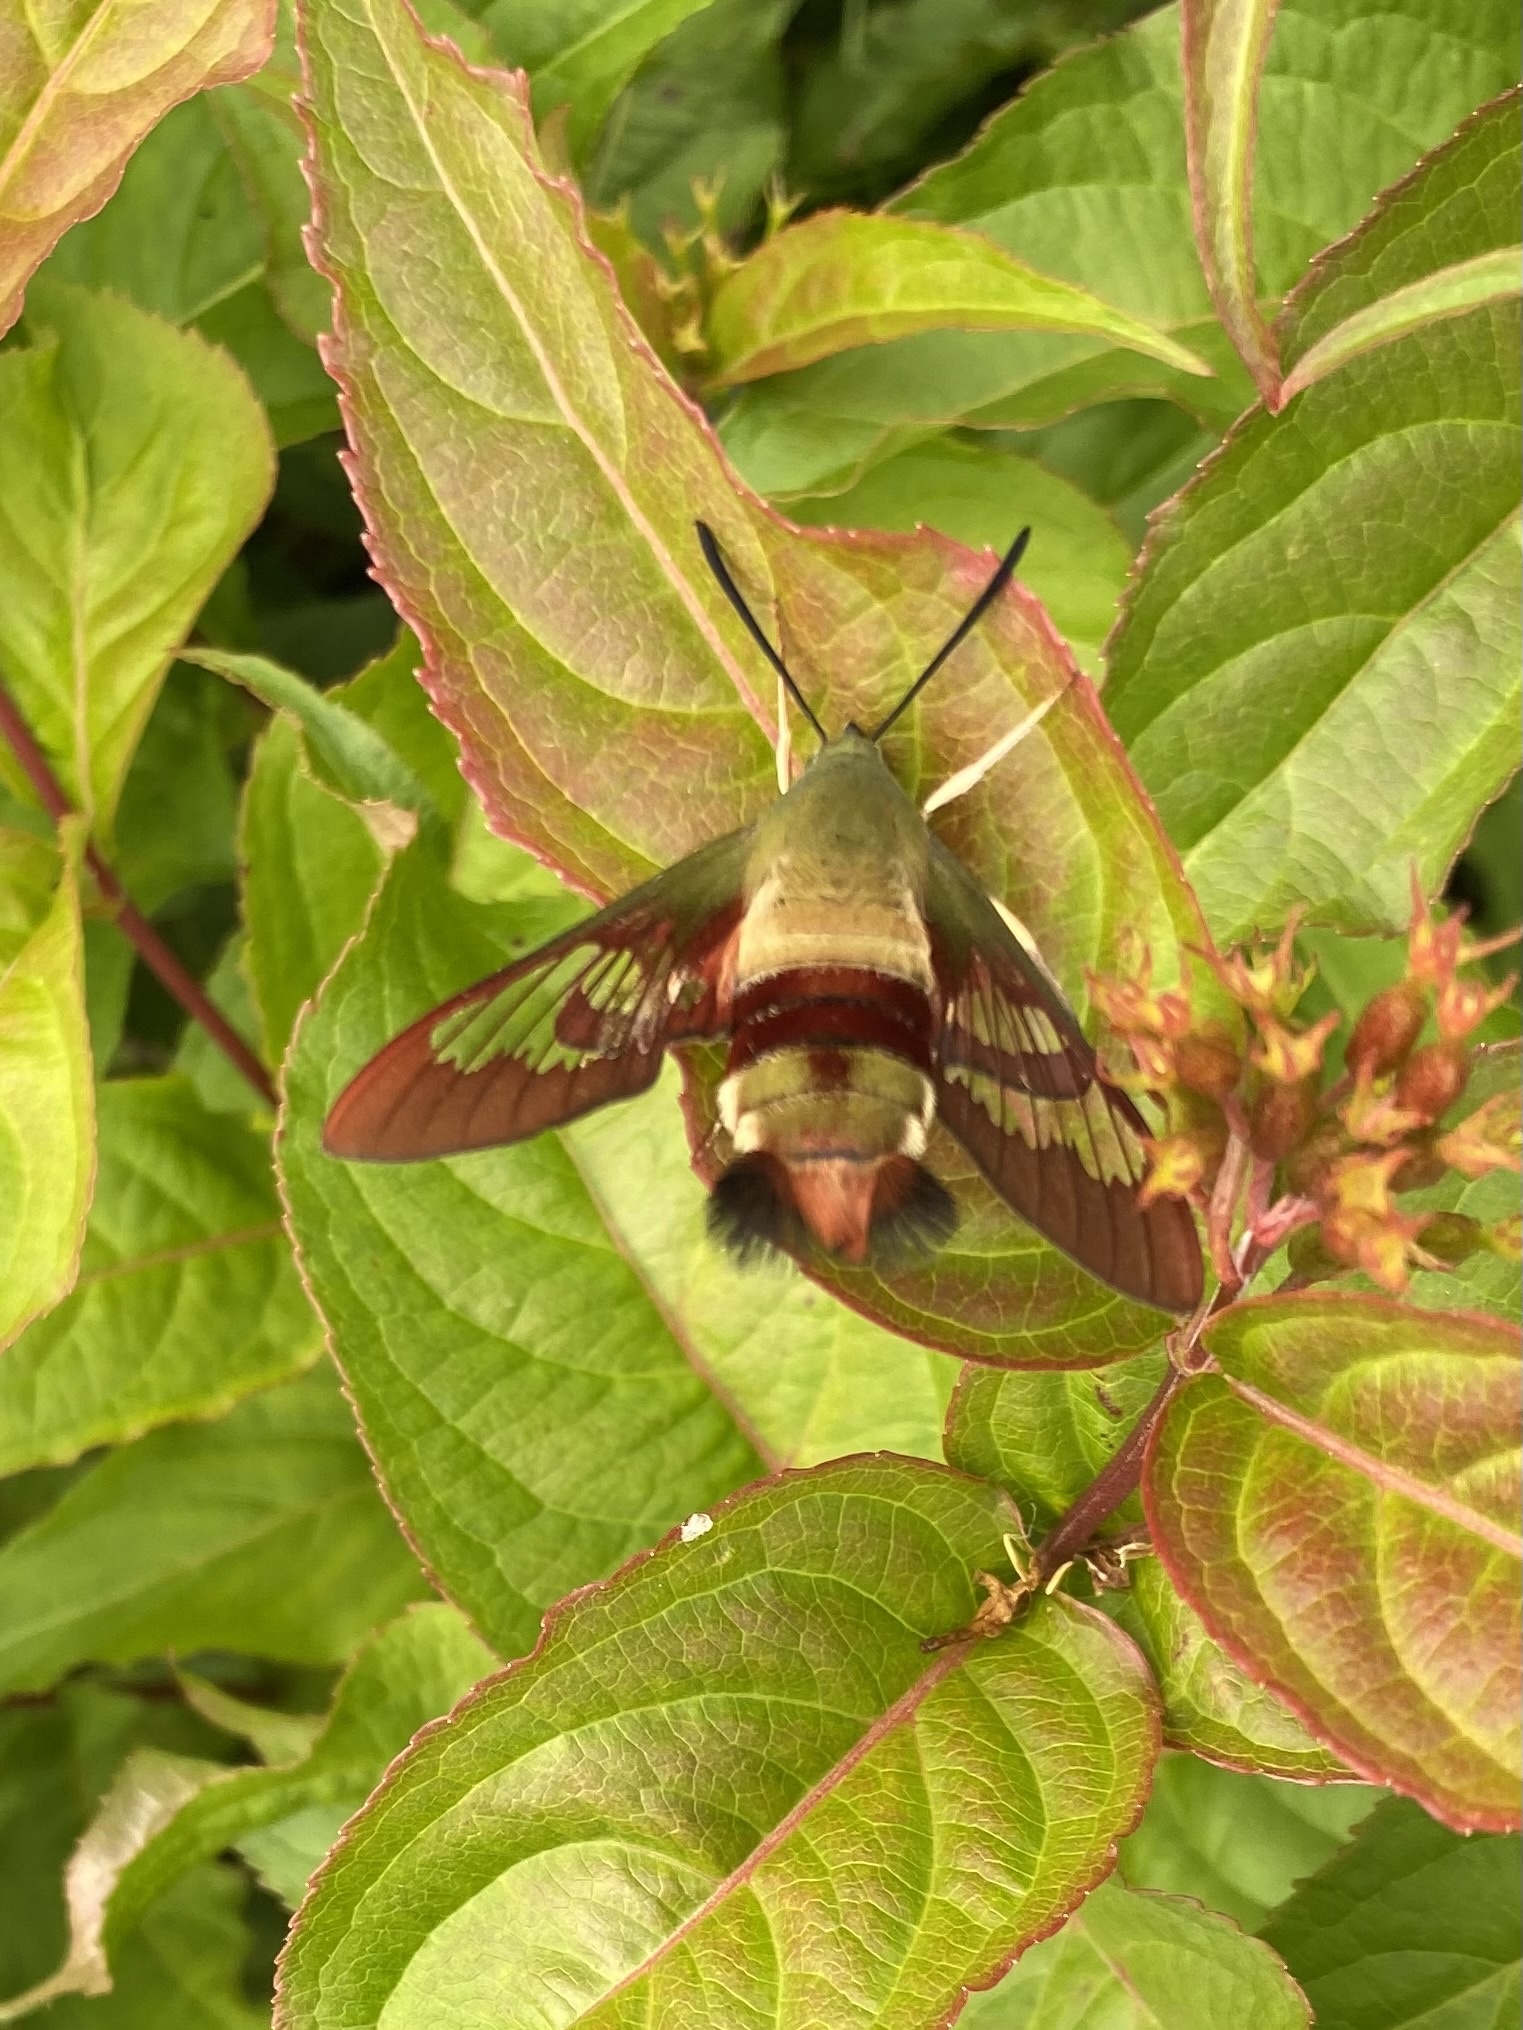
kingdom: Animalia
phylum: Arthropoda
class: Insecta
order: Lepidoptera
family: Sphingidae
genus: Hemaris
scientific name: Hemaris thysbe
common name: Common clear-wing
